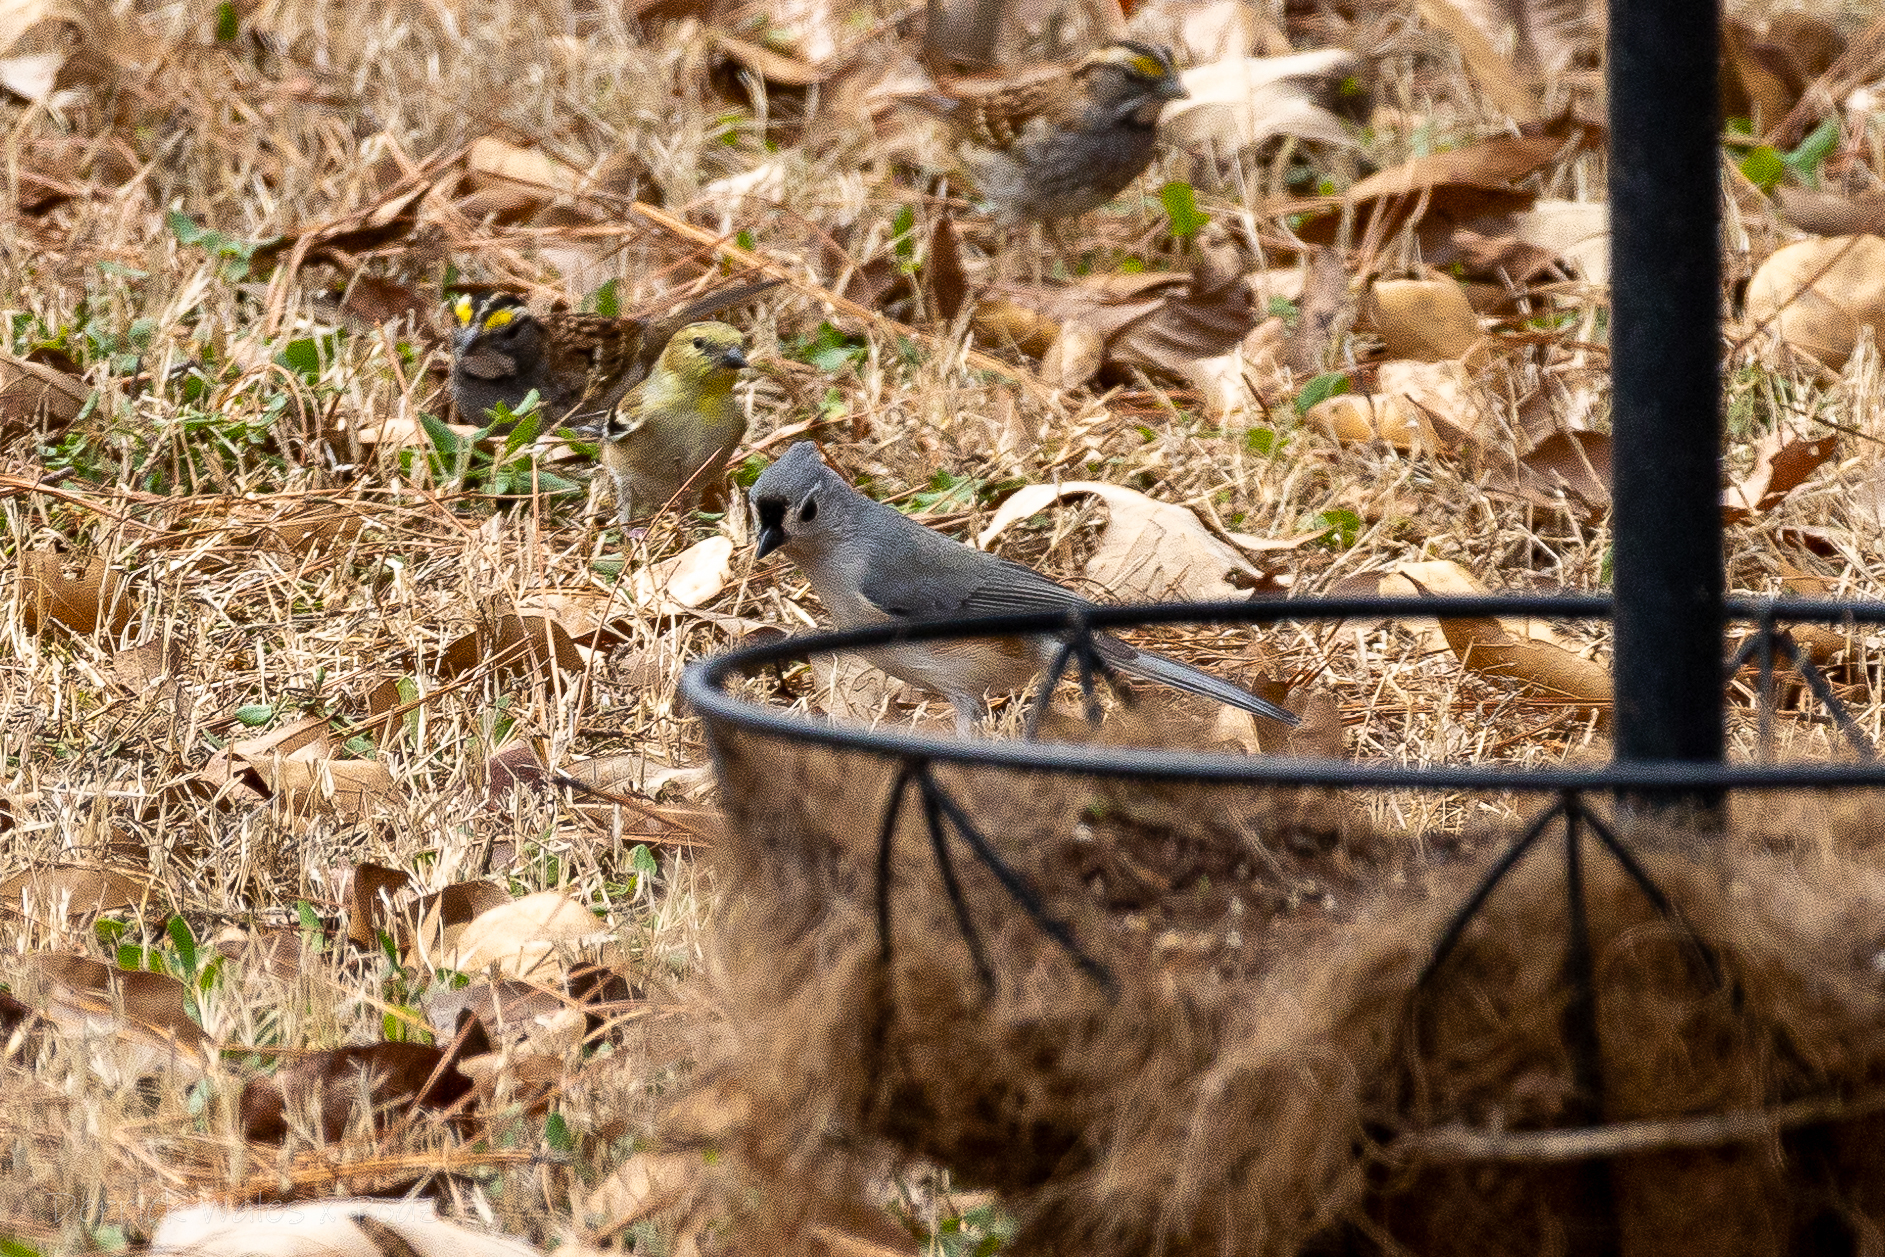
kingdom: Animalia
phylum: Chordata
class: Aves
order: Passeriformes
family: Paridae
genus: Baeolophus
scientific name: Baeolophus bicolor
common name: Tufted titmouse
